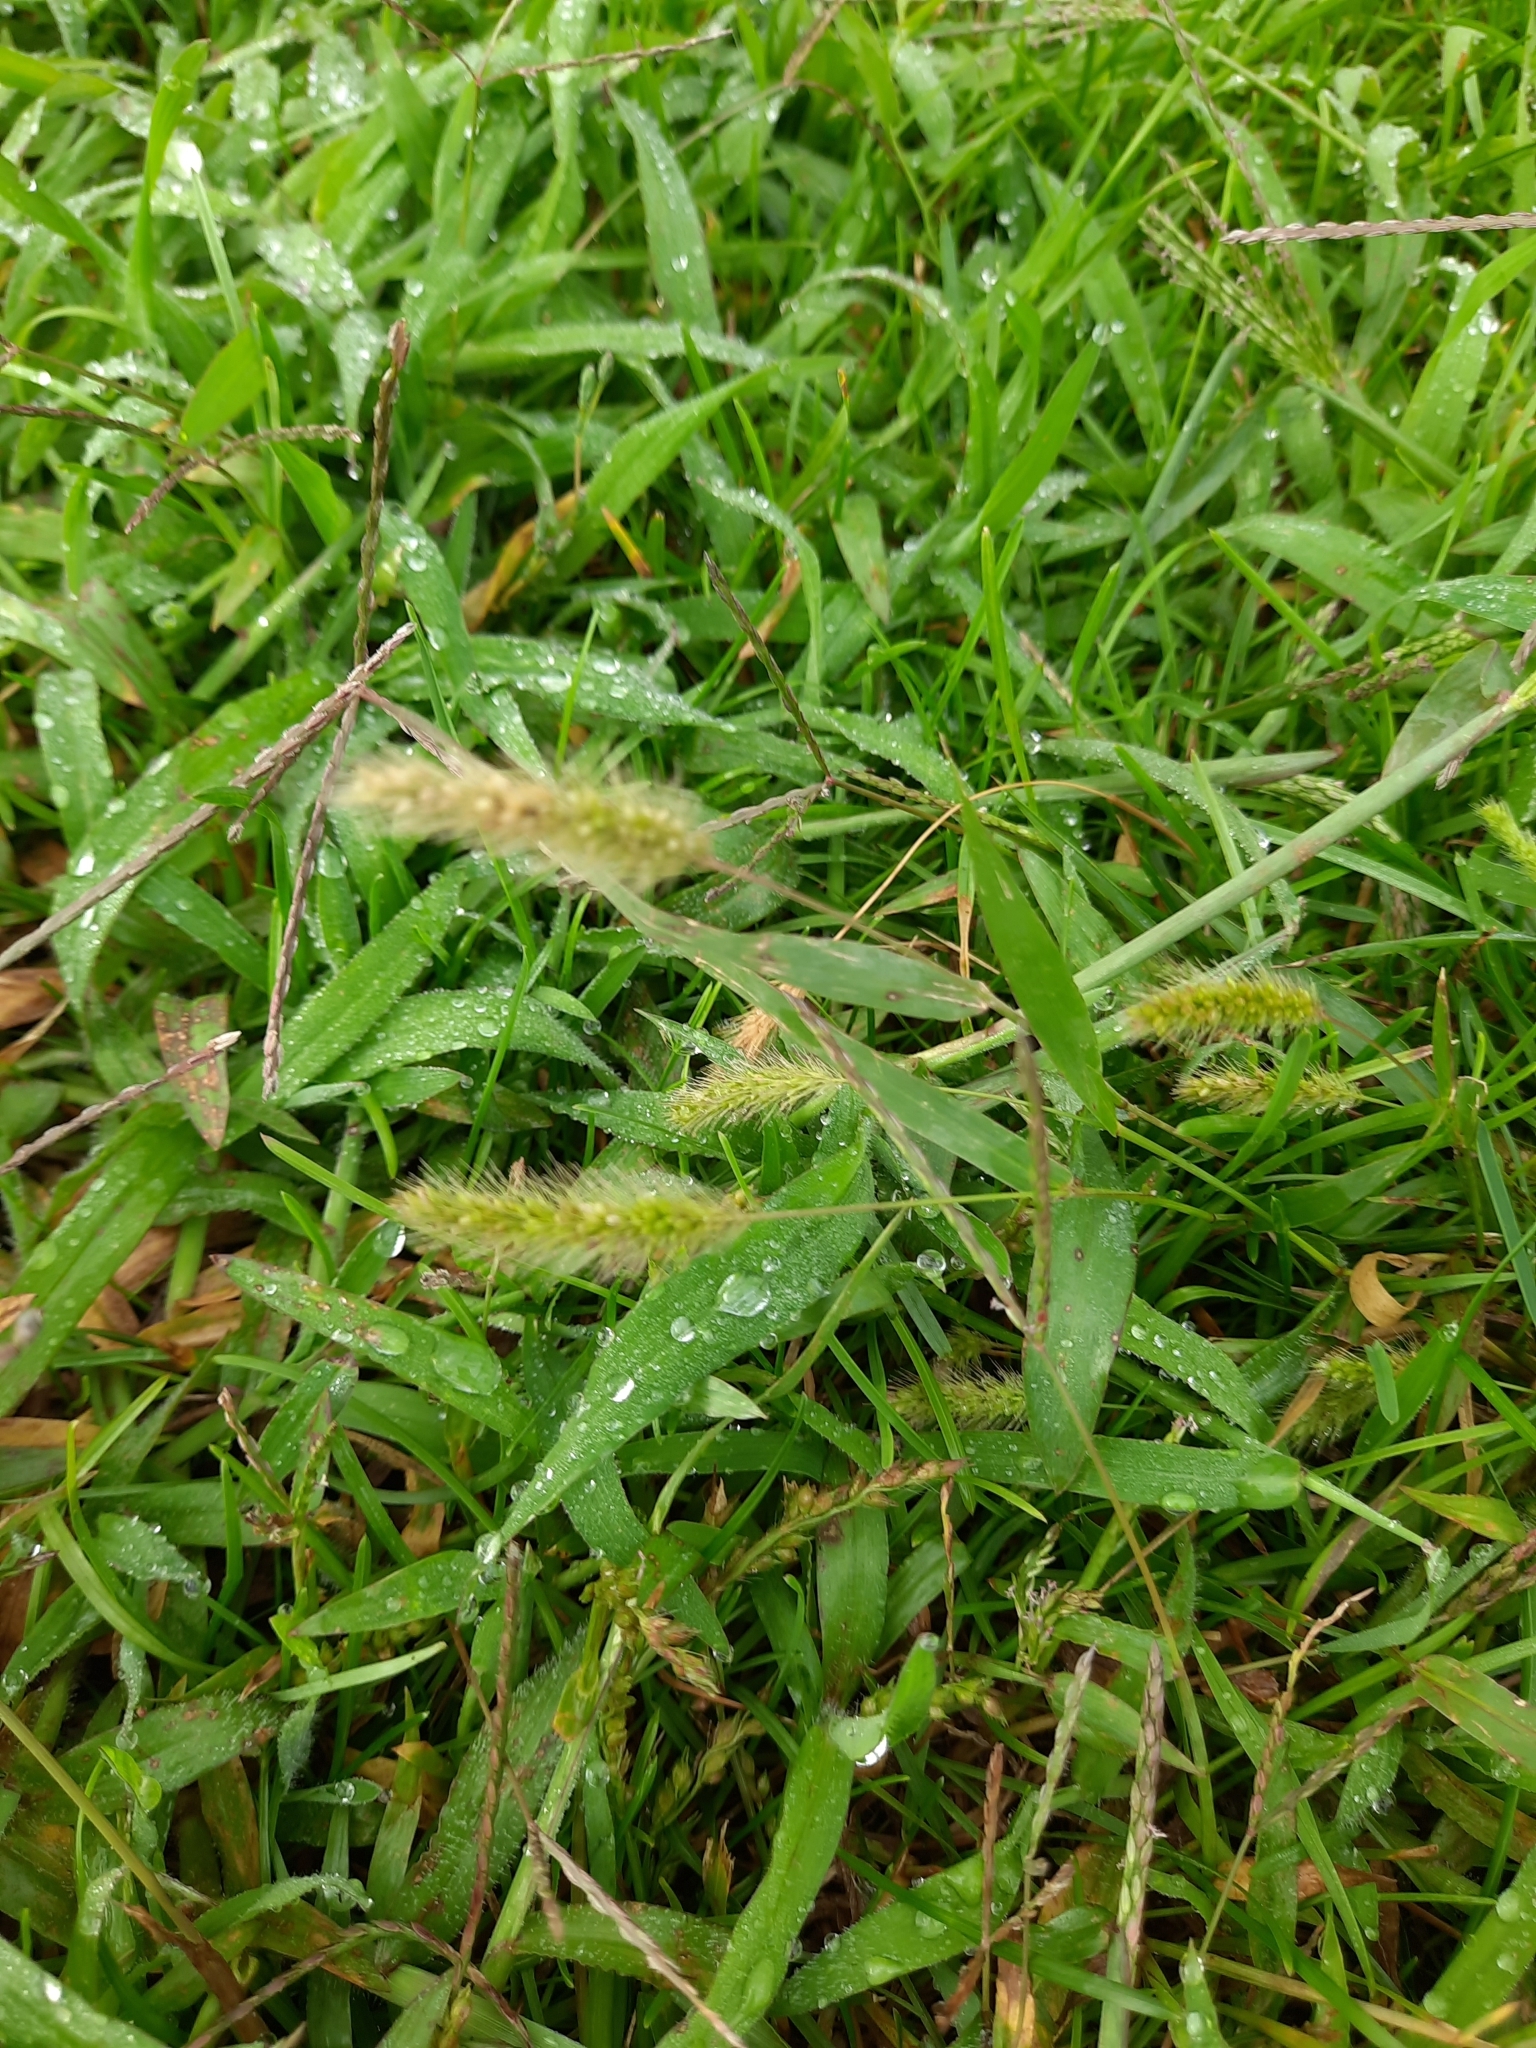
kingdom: Plantae
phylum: Tracheophyta
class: Liliopsida
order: Poales
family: Poaceae
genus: Setaria
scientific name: Setaria viridis
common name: Green bristlegrass
